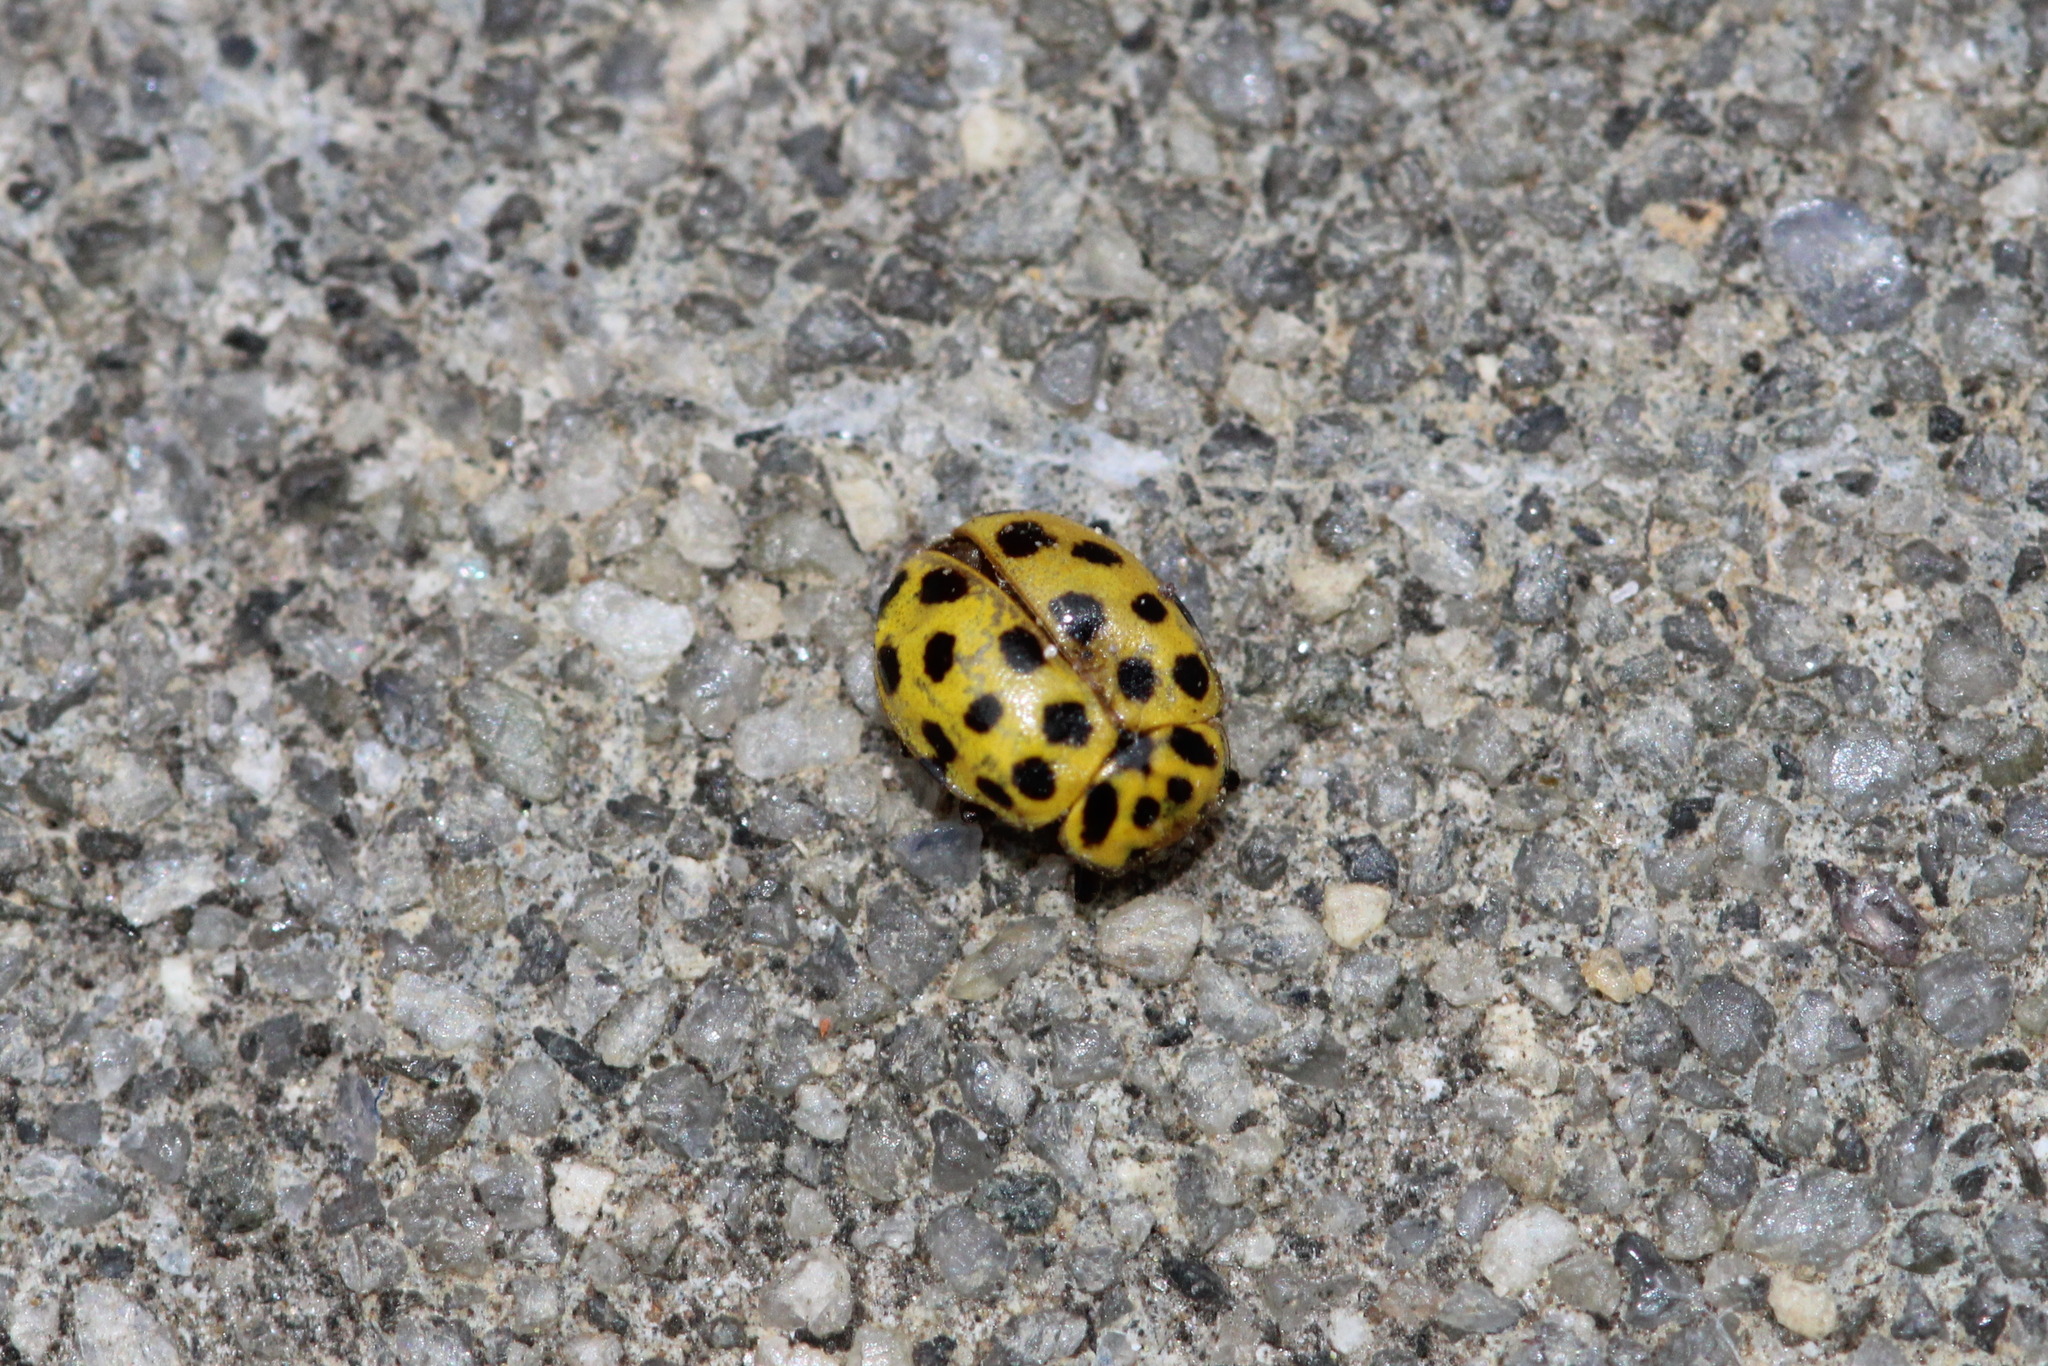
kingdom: Animalia
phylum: Arthropoda
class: Insecta
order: Coleoptera
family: Coccinellidae
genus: Psyllobora
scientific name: Psyllobora vigintiduopunctata
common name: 22-spot ladybird
